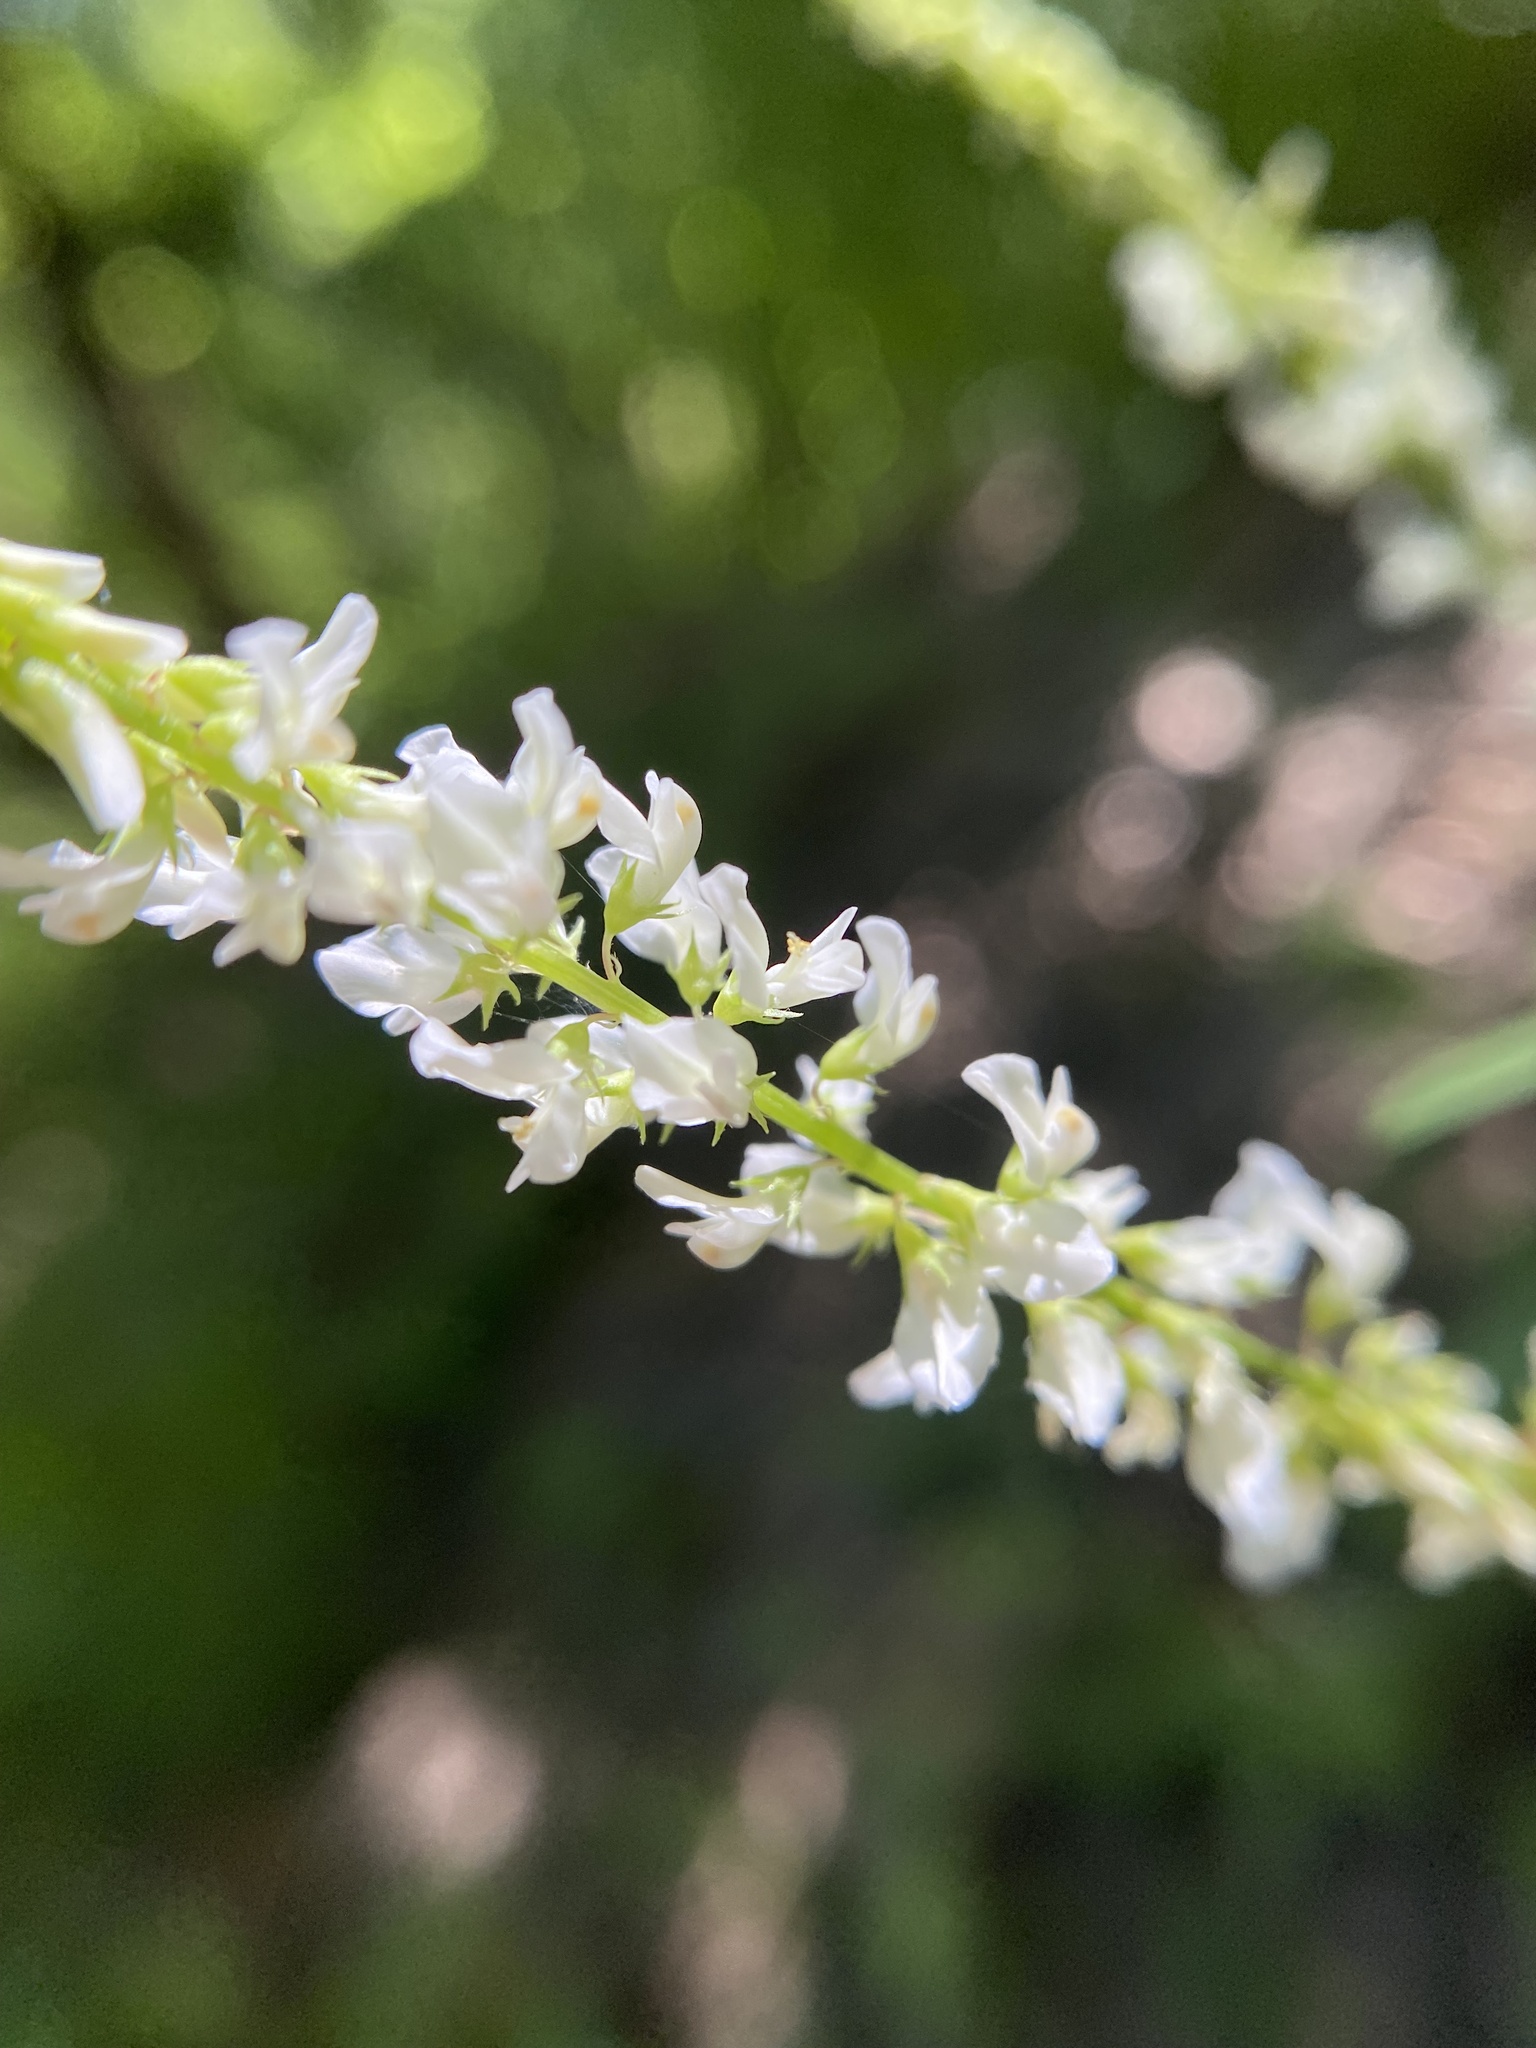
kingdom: Plantae
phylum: Tracheophyta
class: Magnoliopsida
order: Fabales
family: Fabaceae
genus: Melilotus
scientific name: Melilotus albus
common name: White melilot
